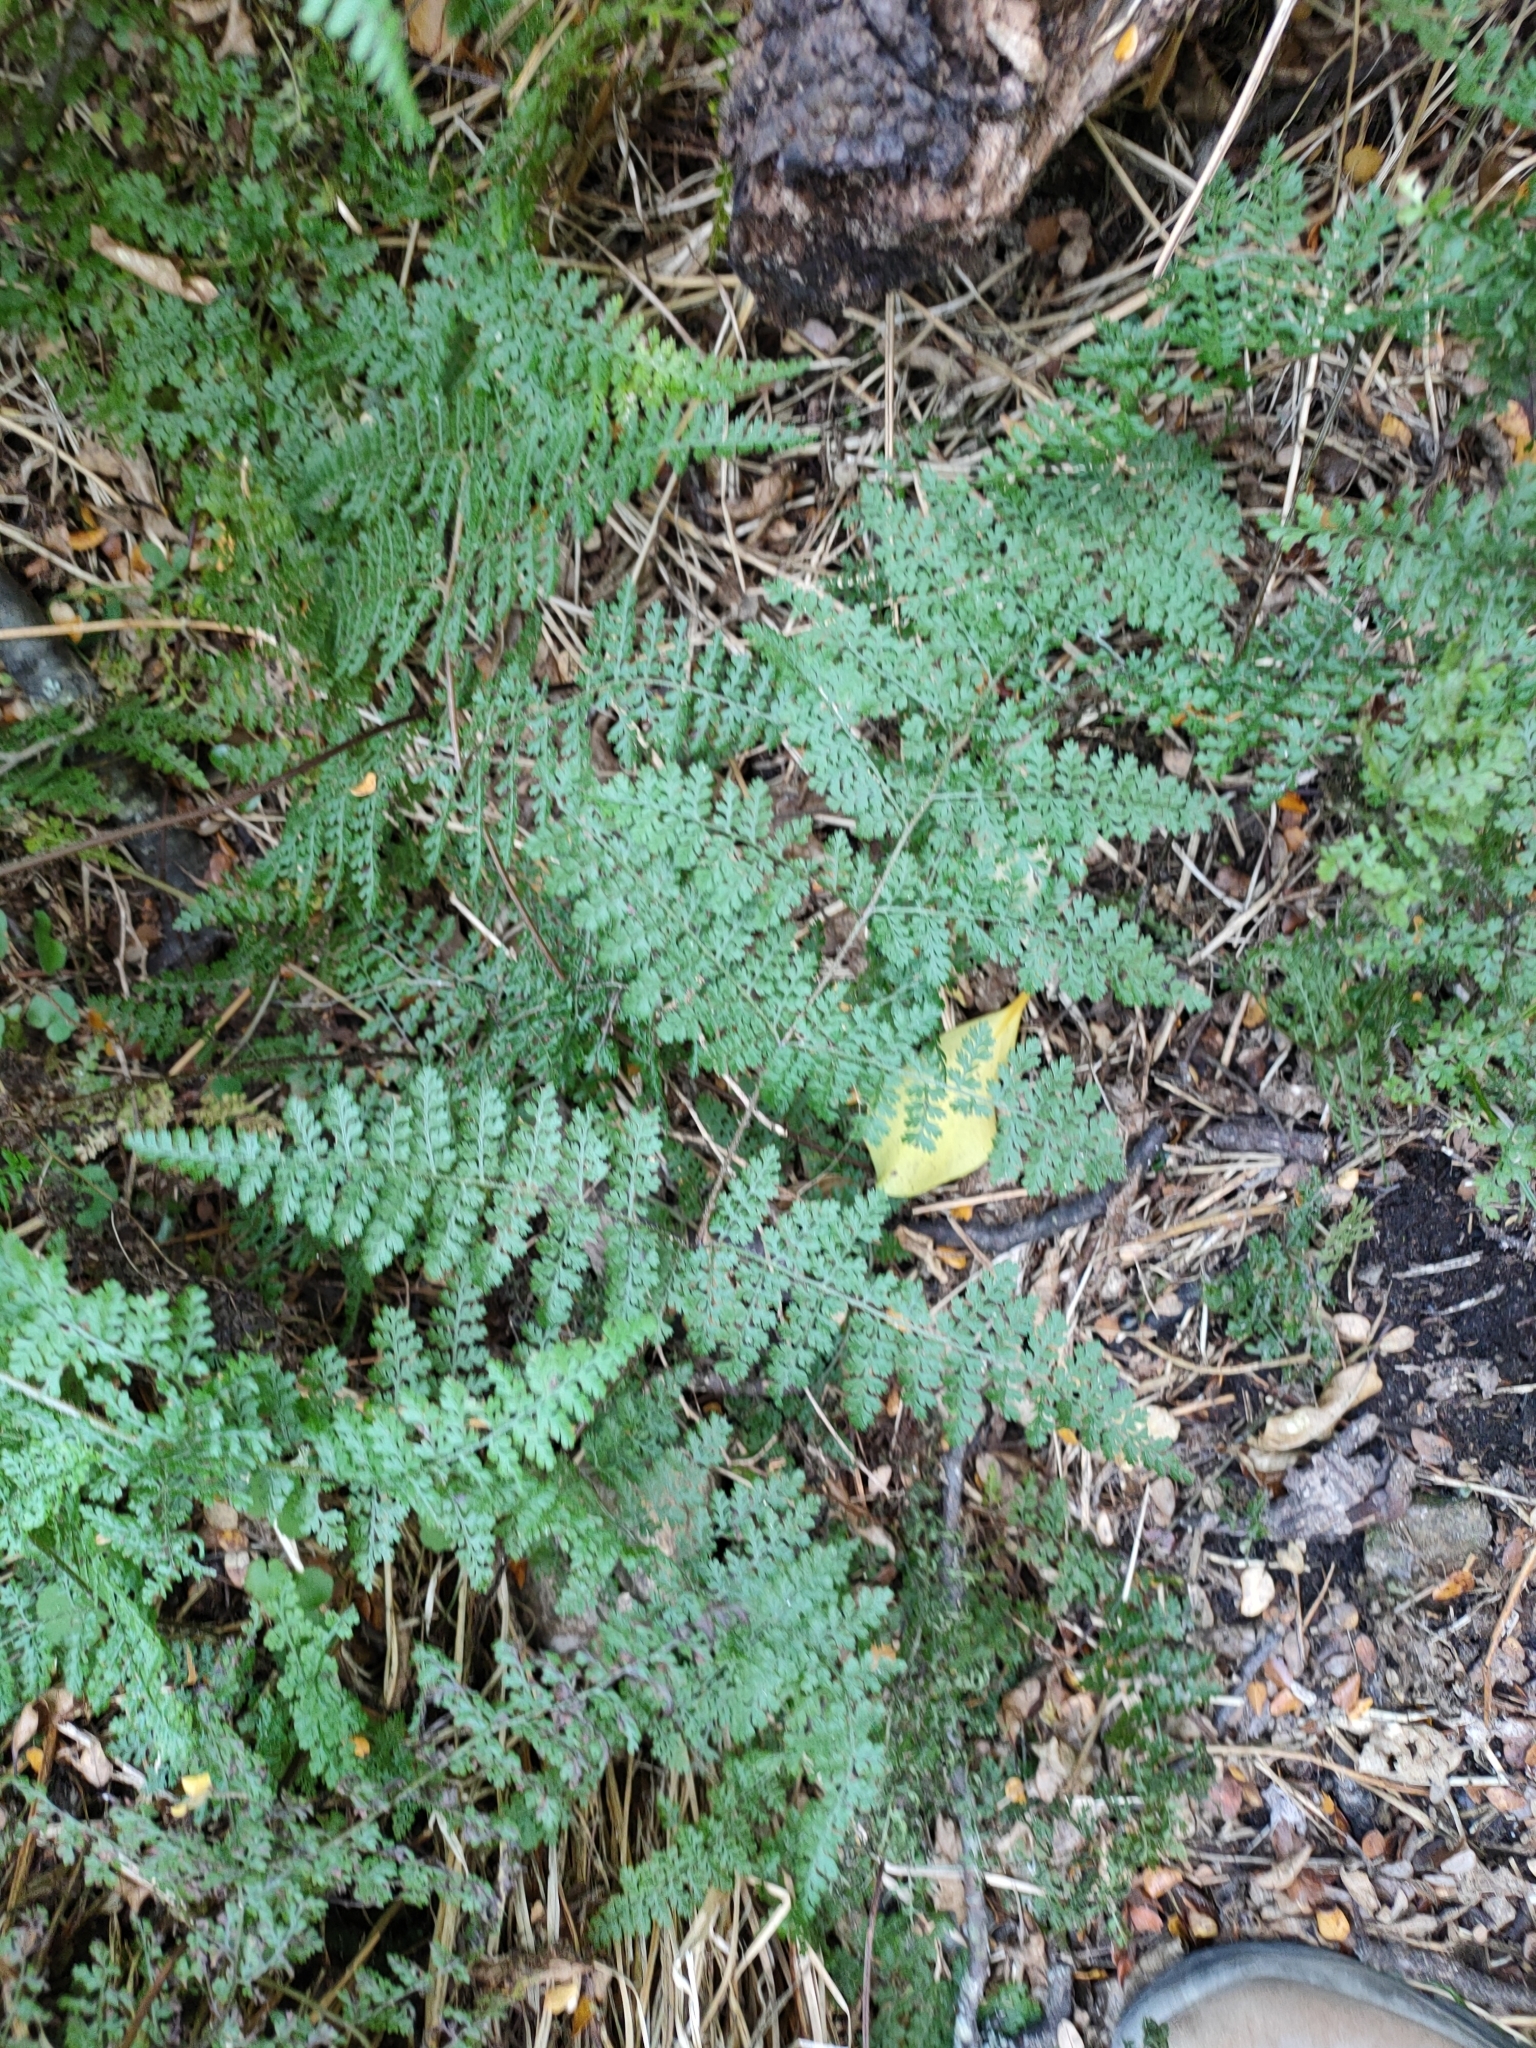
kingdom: Plantae
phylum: Tracheophyta
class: Polypodiopsida
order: Polypodiales
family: Dennstaedtiaceae
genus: Hypolepis
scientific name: Hypolepis millefolium
